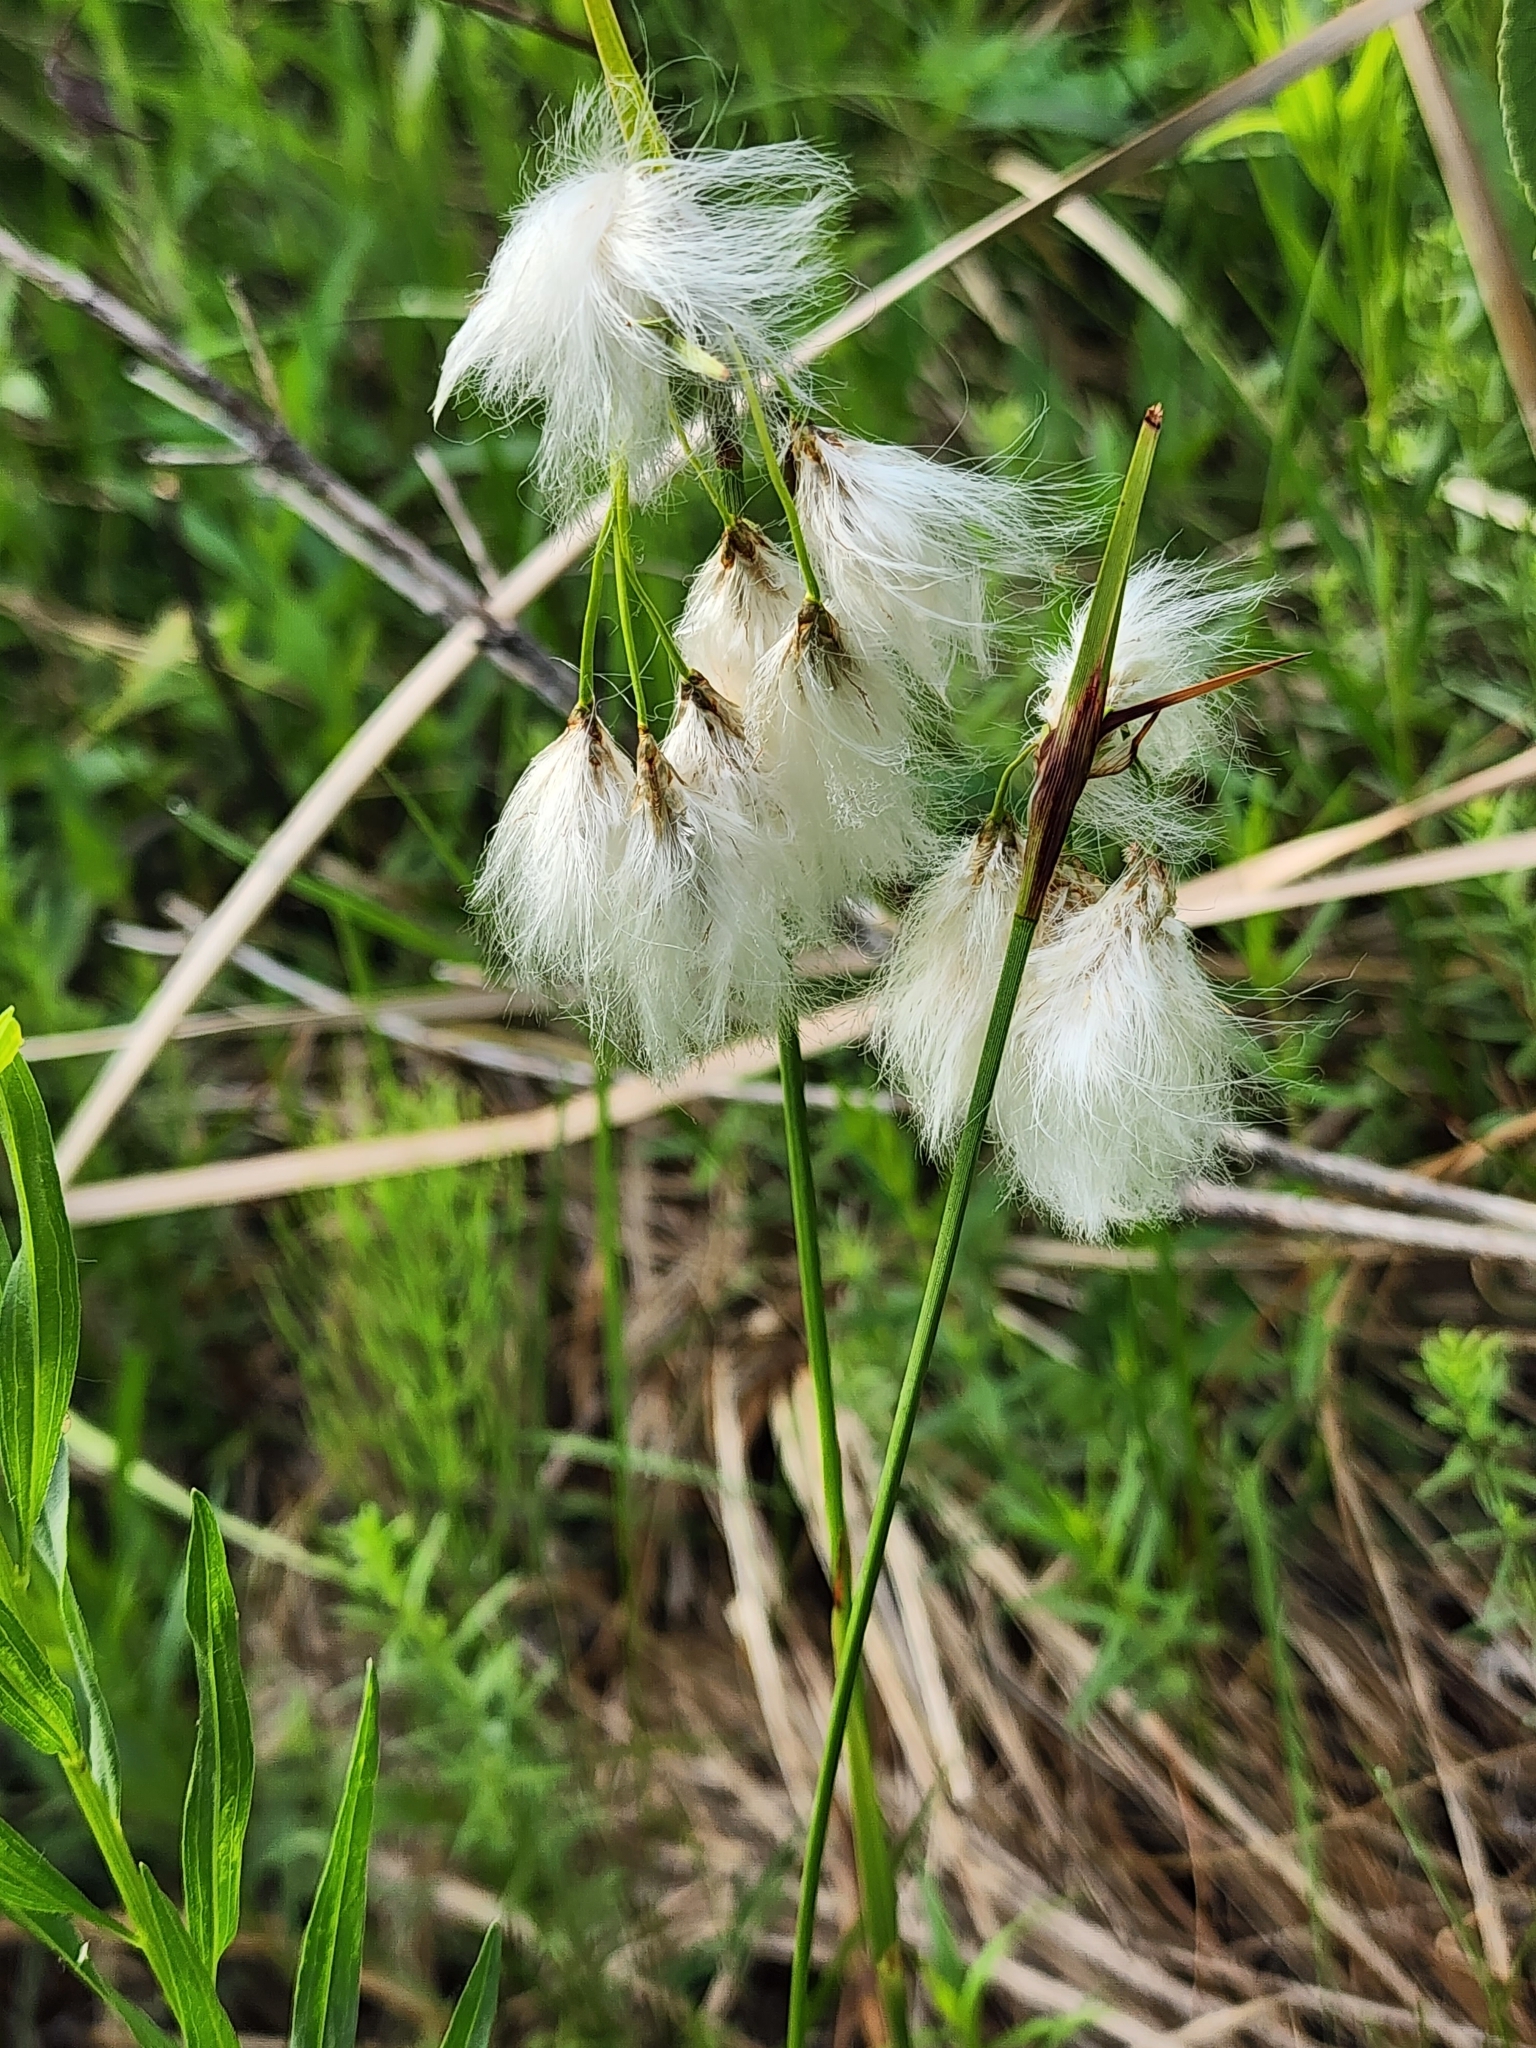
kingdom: Plantae
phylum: Tracheophyta
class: Liliopsida
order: Poales
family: Cyperaceae
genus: Eriophorum
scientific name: Eriophorum gracile
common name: Slender cottongrass
